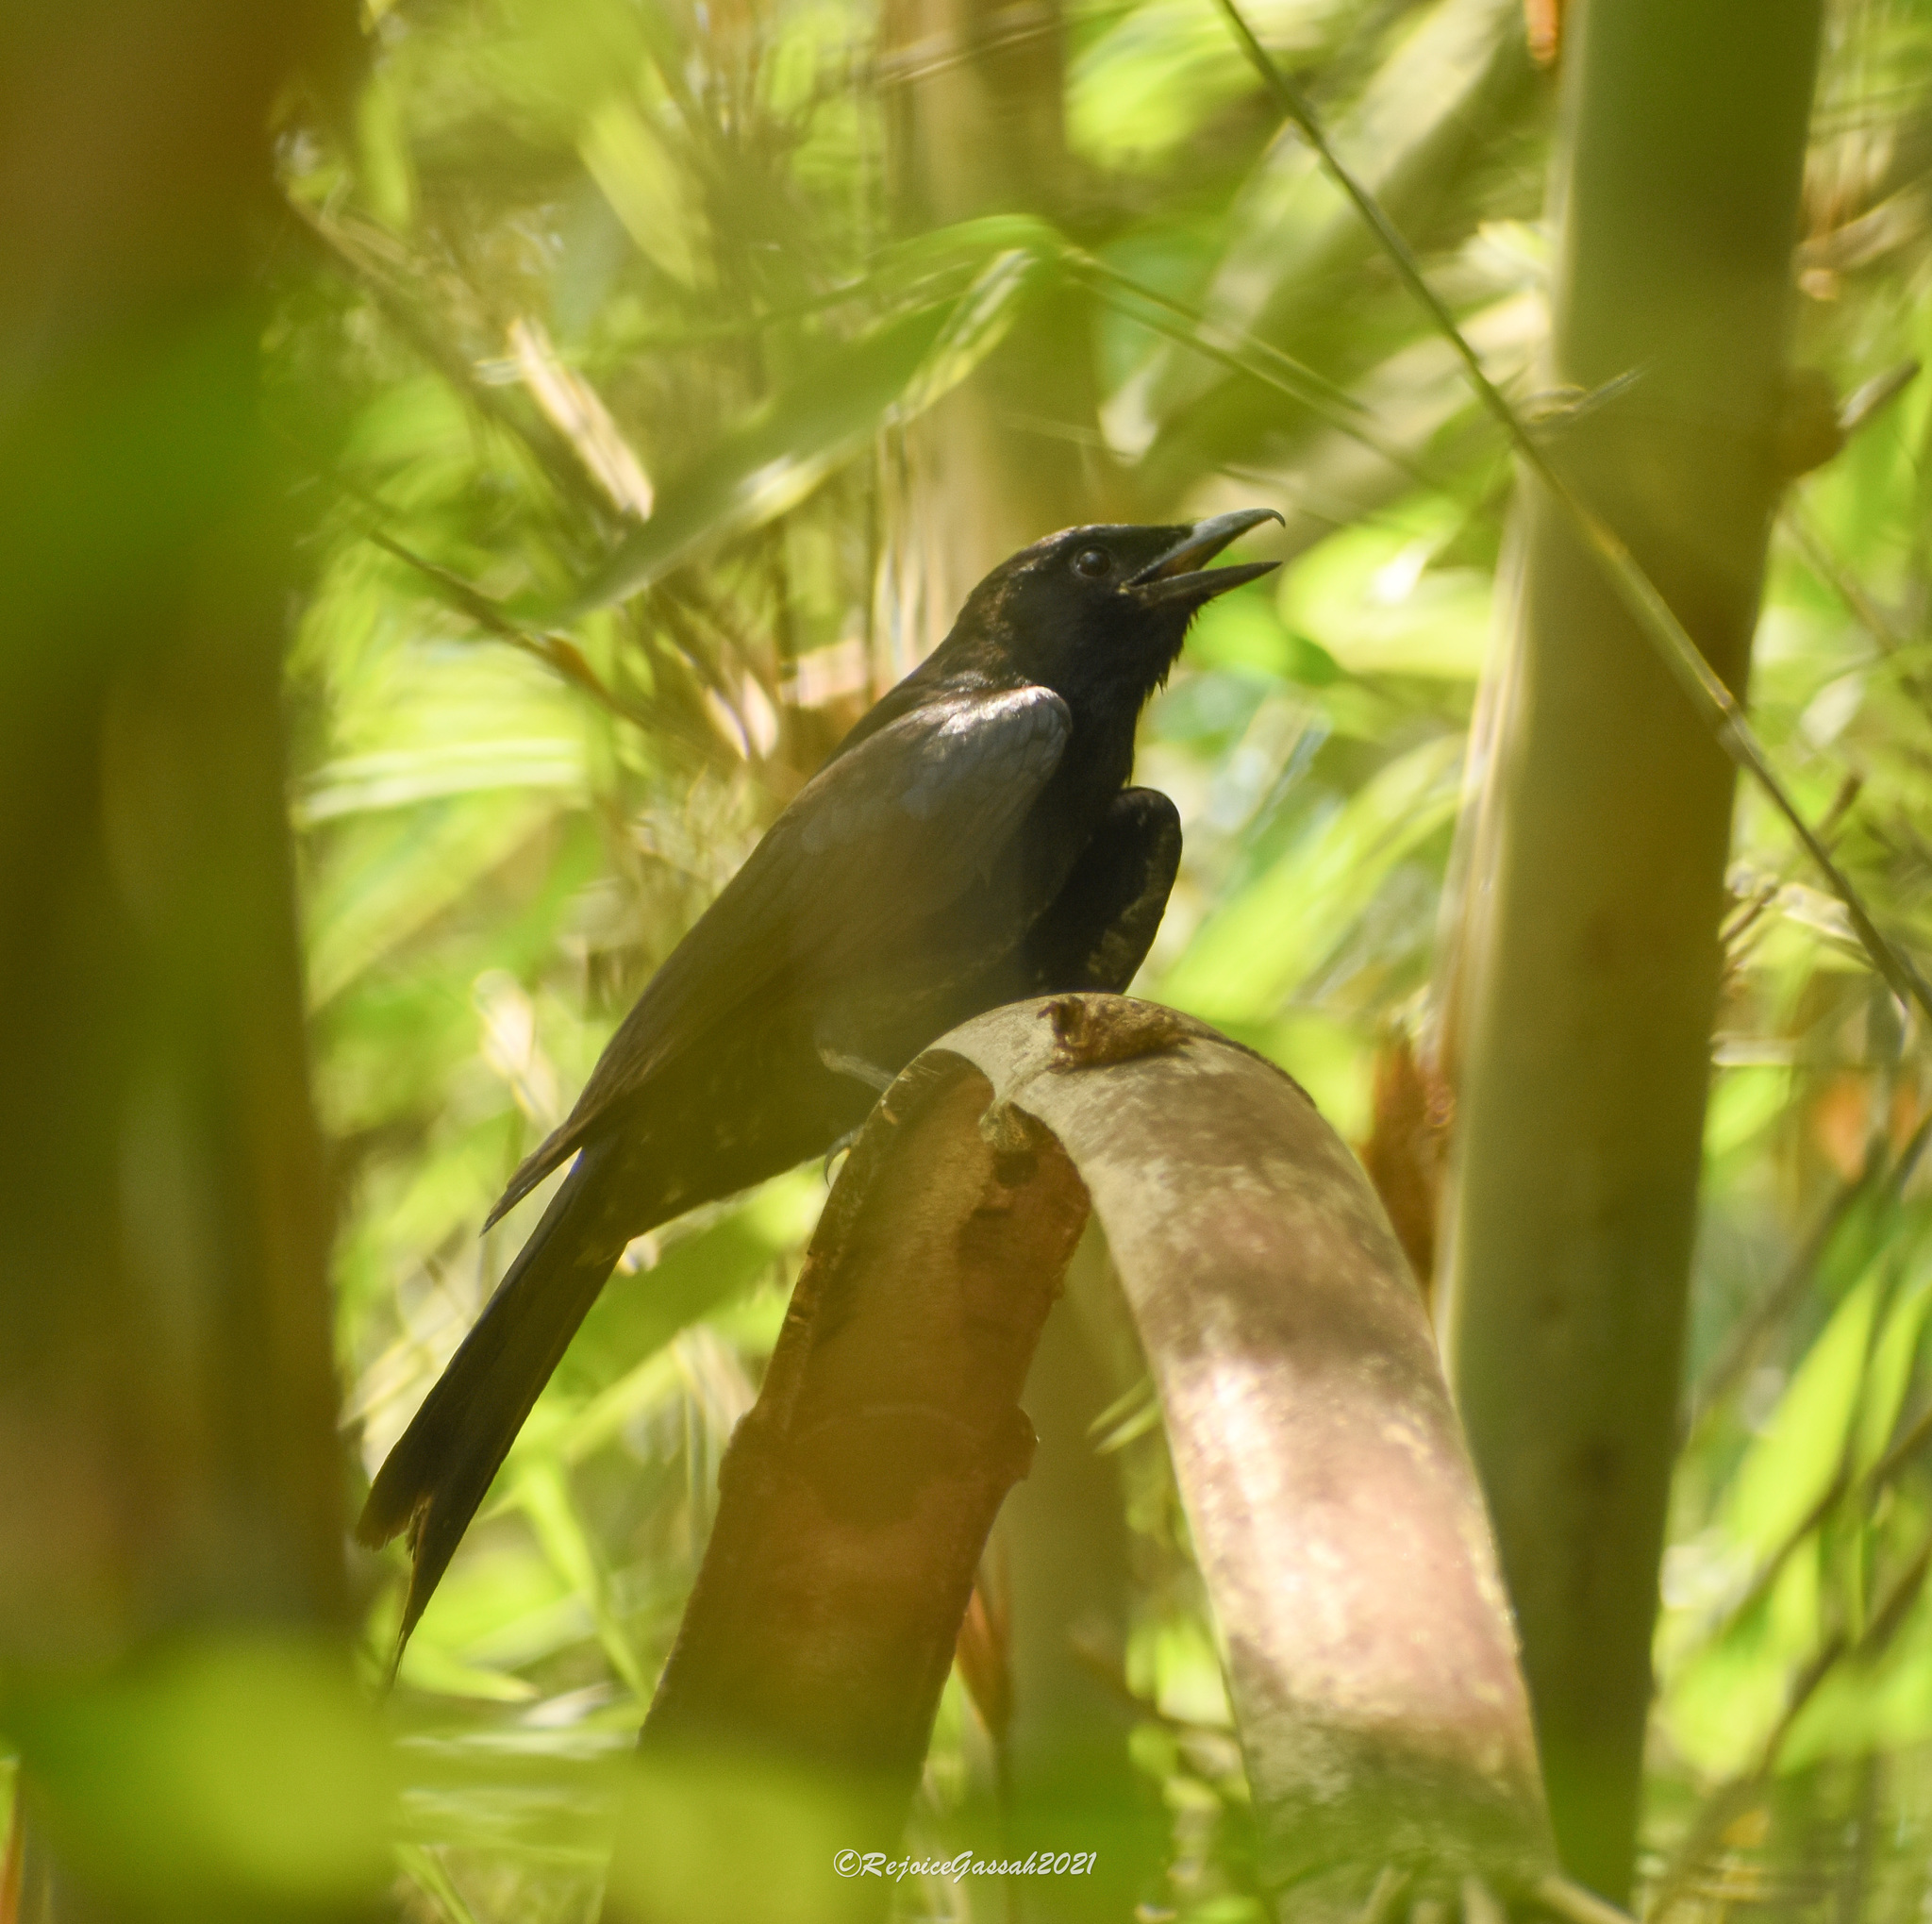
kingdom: Animalia
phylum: Chordata
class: Aves
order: Passeriformes
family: Dicruridae
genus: Dicrurus
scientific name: Dicrurus macrocercus
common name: Black drongo
